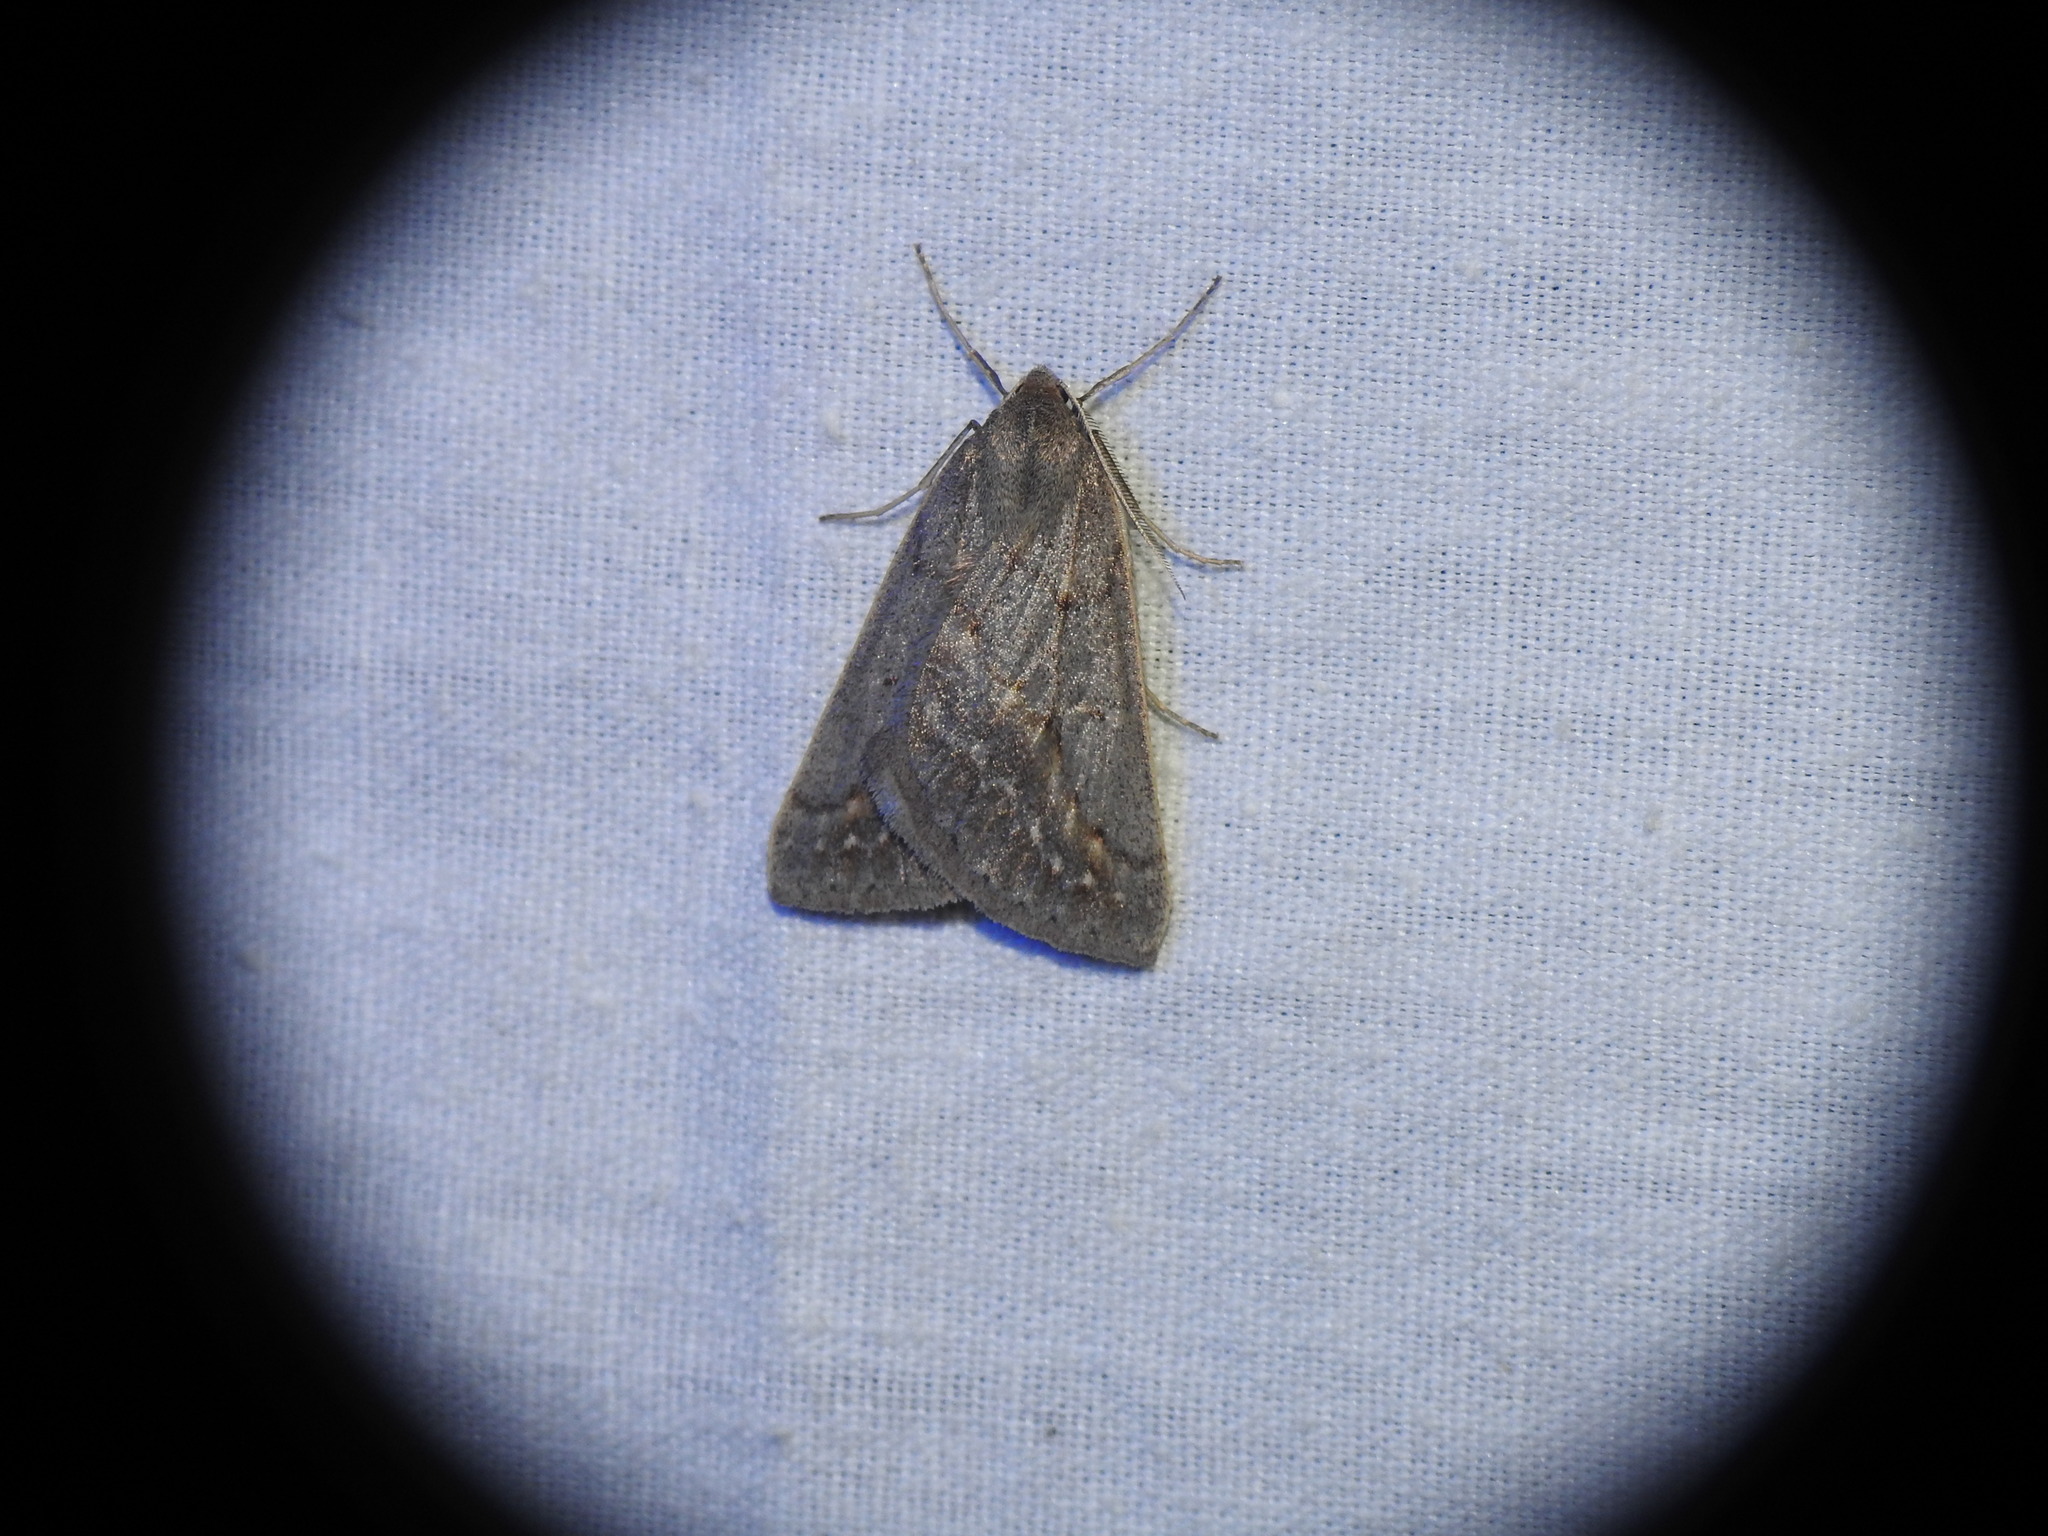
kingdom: Animalia
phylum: Arthropoda
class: Insecta
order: Lepidoptera
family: Geometridae
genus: Chemerina
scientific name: Chemerina caliginearia
